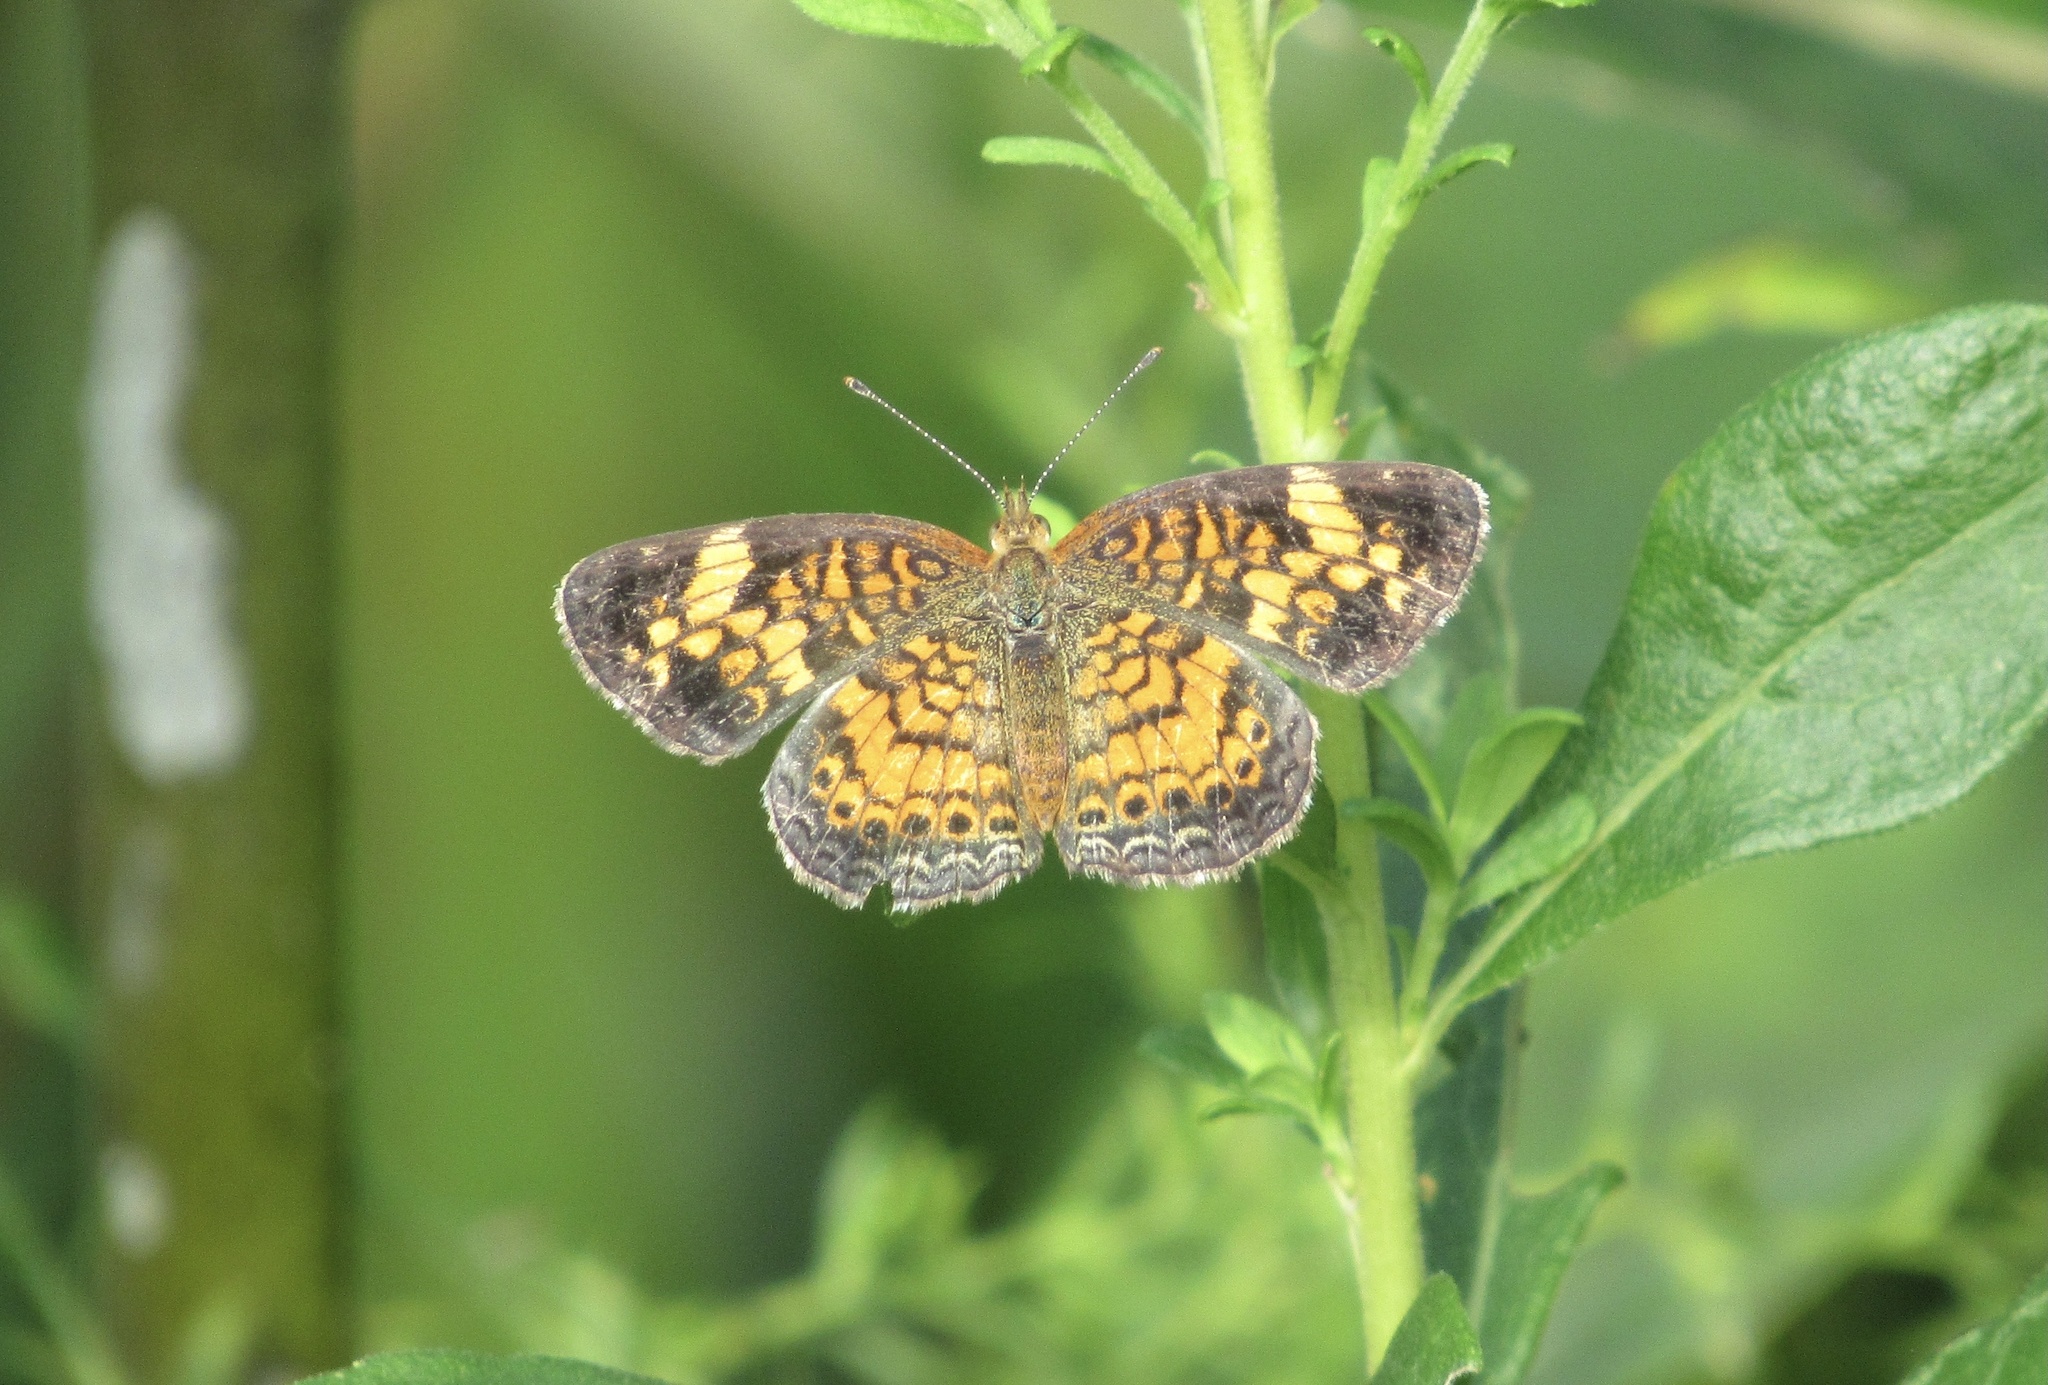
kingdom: Animalia
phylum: Arthropoda
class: Insecta
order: Lepidoptera
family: Nymphalidae
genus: Phyciodes
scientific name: Phyciodes tharos
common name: Pearl crescent
